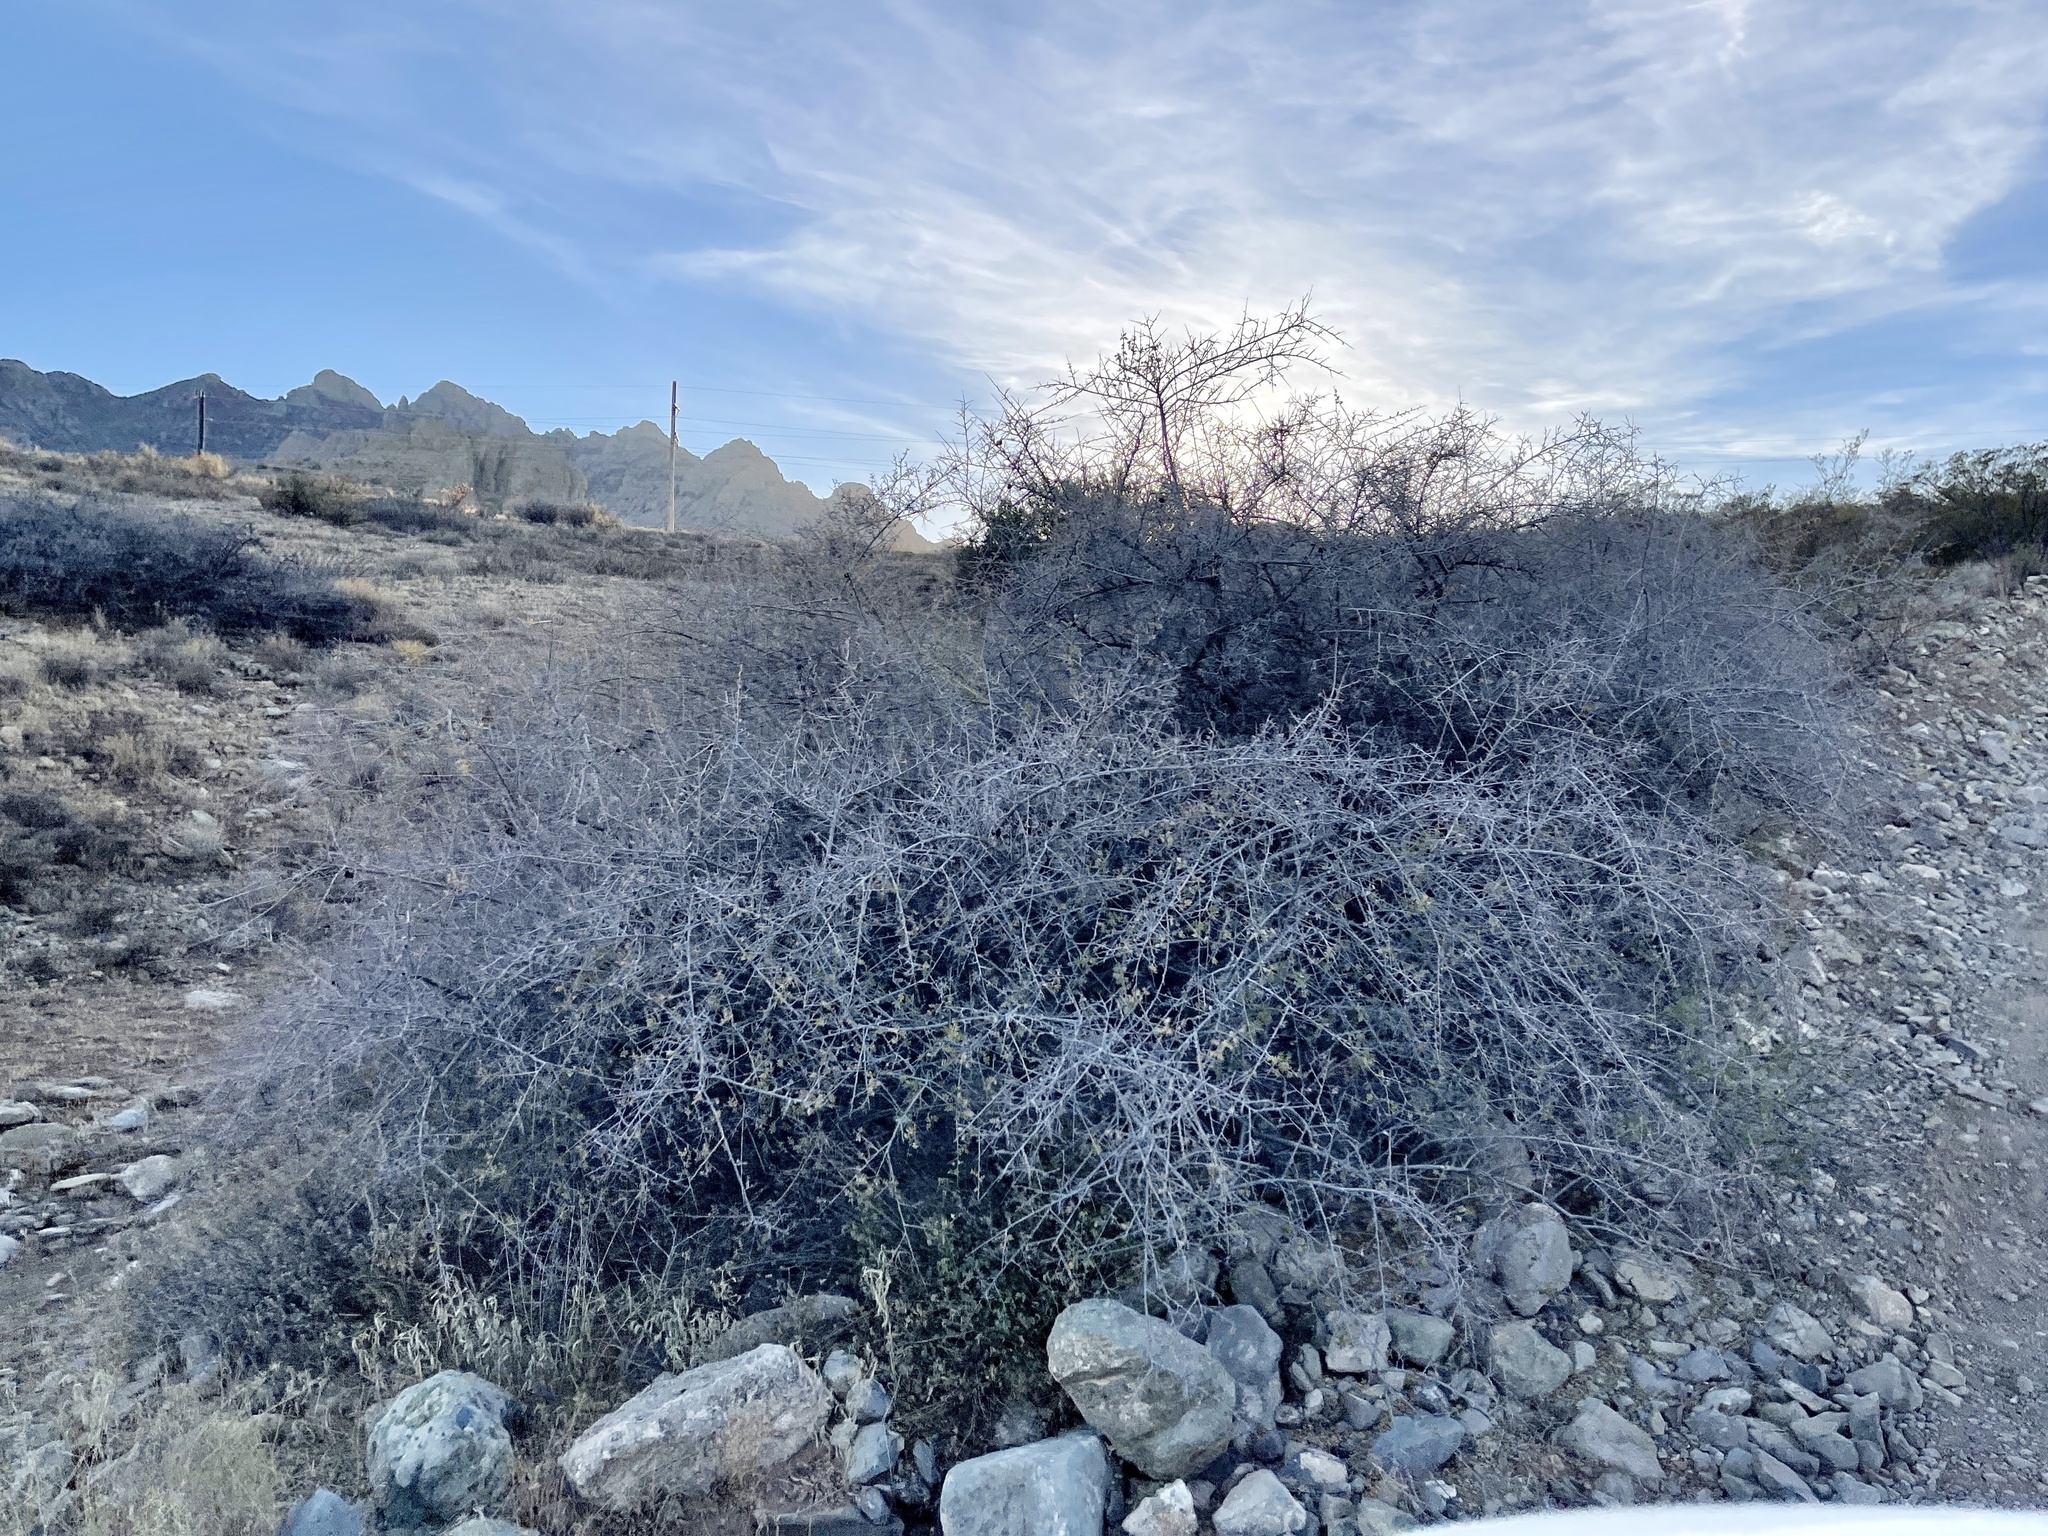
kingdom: Plantae
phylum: Tracheophyta
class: Magnoliopsida
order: Sapindales
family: Anacardiaceae
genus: Rhus
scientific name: Rhus microphylla
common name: Desert sumac
